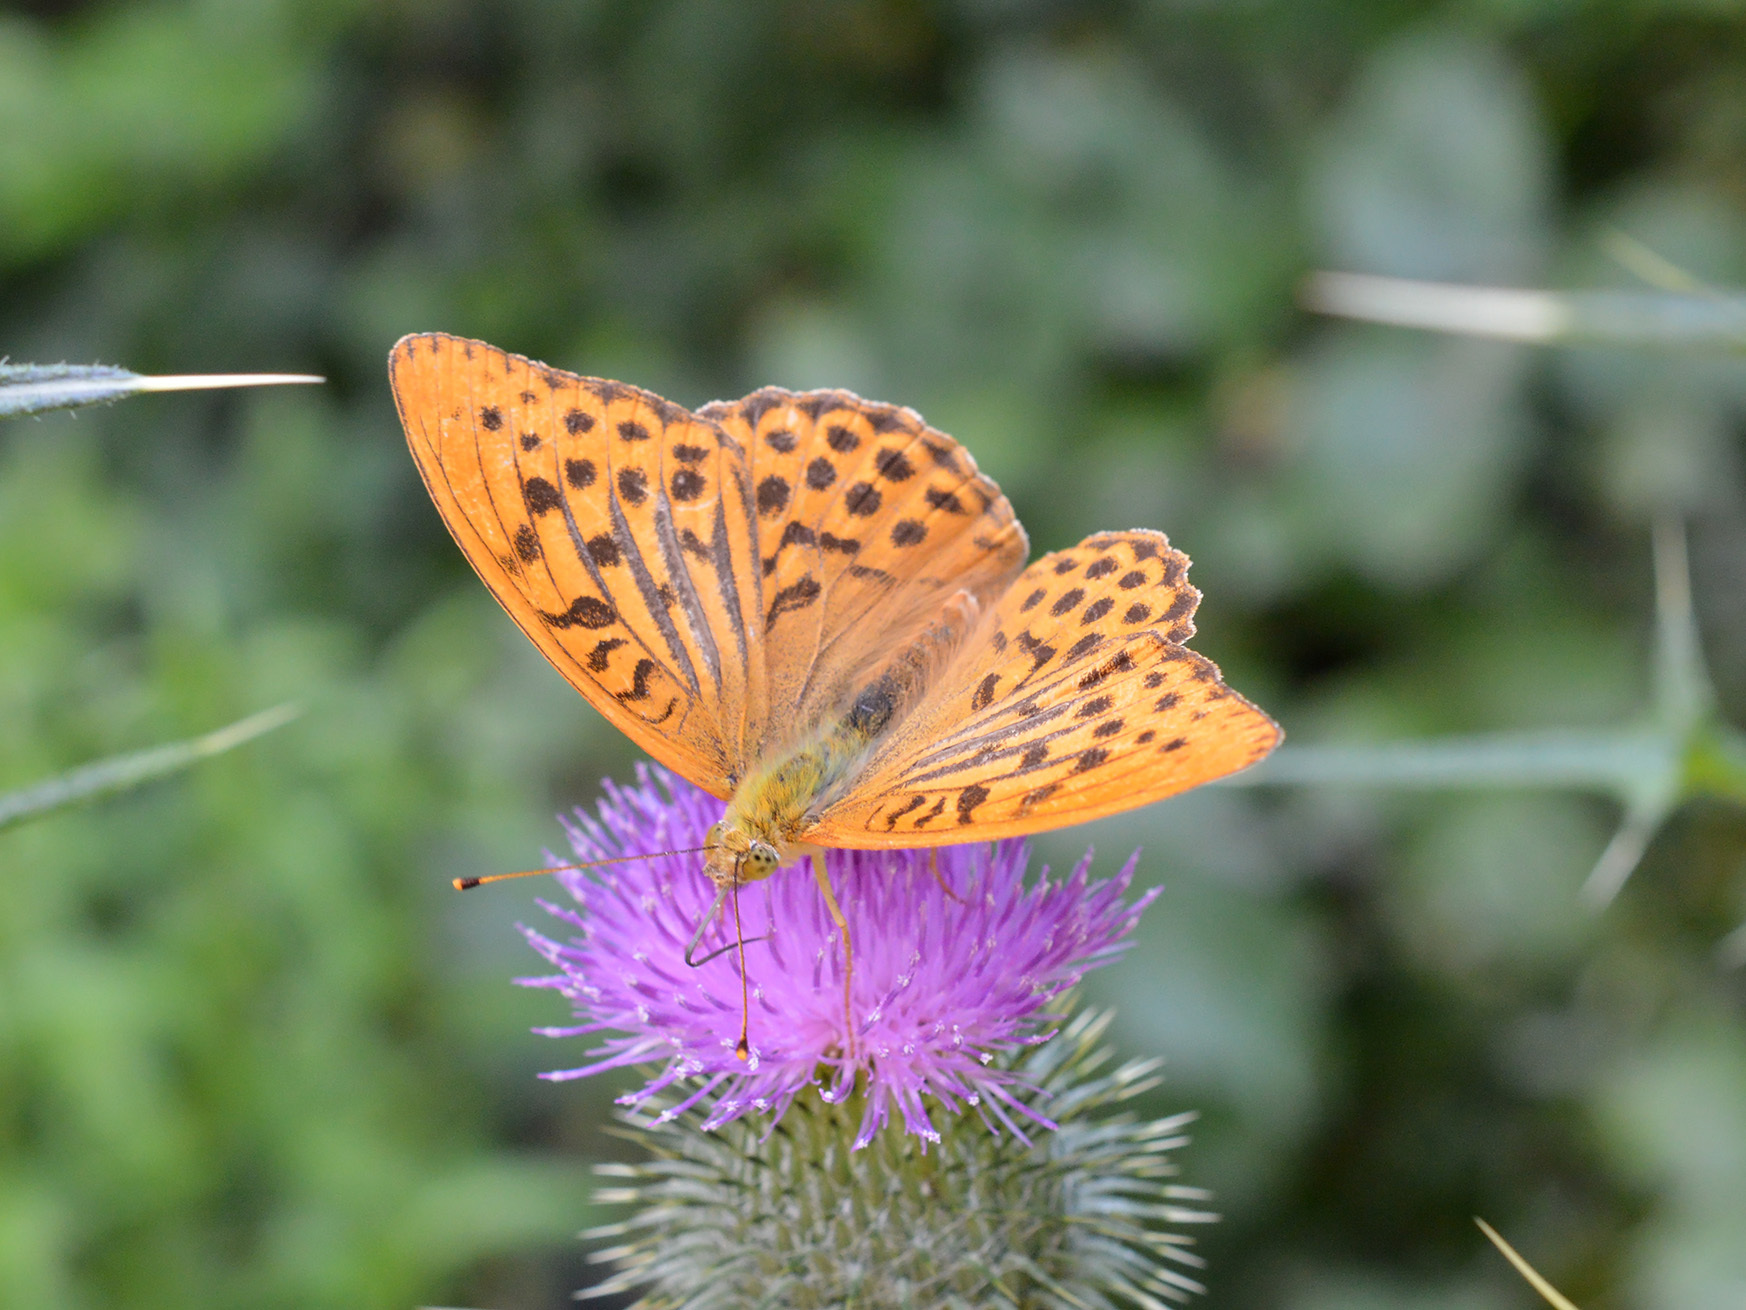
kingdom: Animalia
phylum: Arthropoda
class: Insecta
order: Lepidoptera
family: Nymphalidae
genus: Argynnis
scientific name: Argynnis paphia
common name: Silver-washed fritillary
